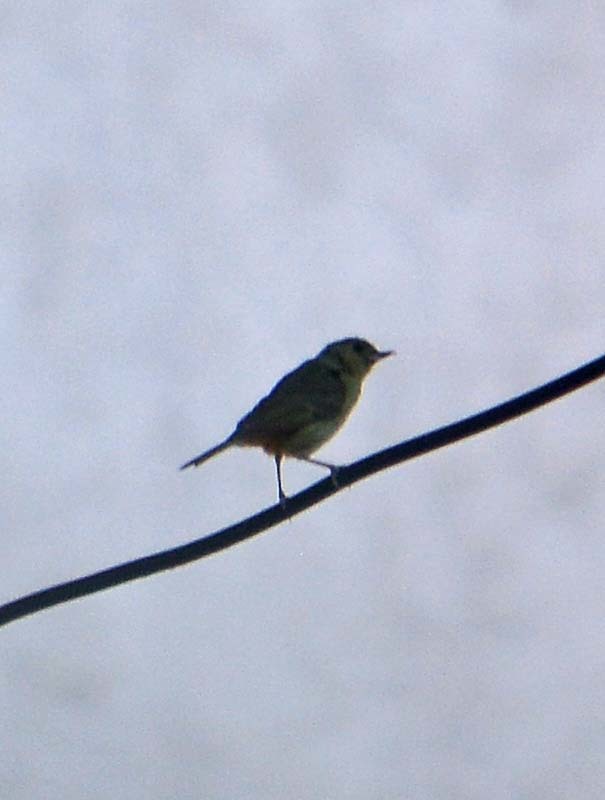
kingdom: Animalia
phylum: Chordata
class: Aves
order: Passeriformes
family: Thraupidae
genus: Diglossa
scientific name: Diglossa baritula
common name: Cinnamon-bellied flowerpiercer
